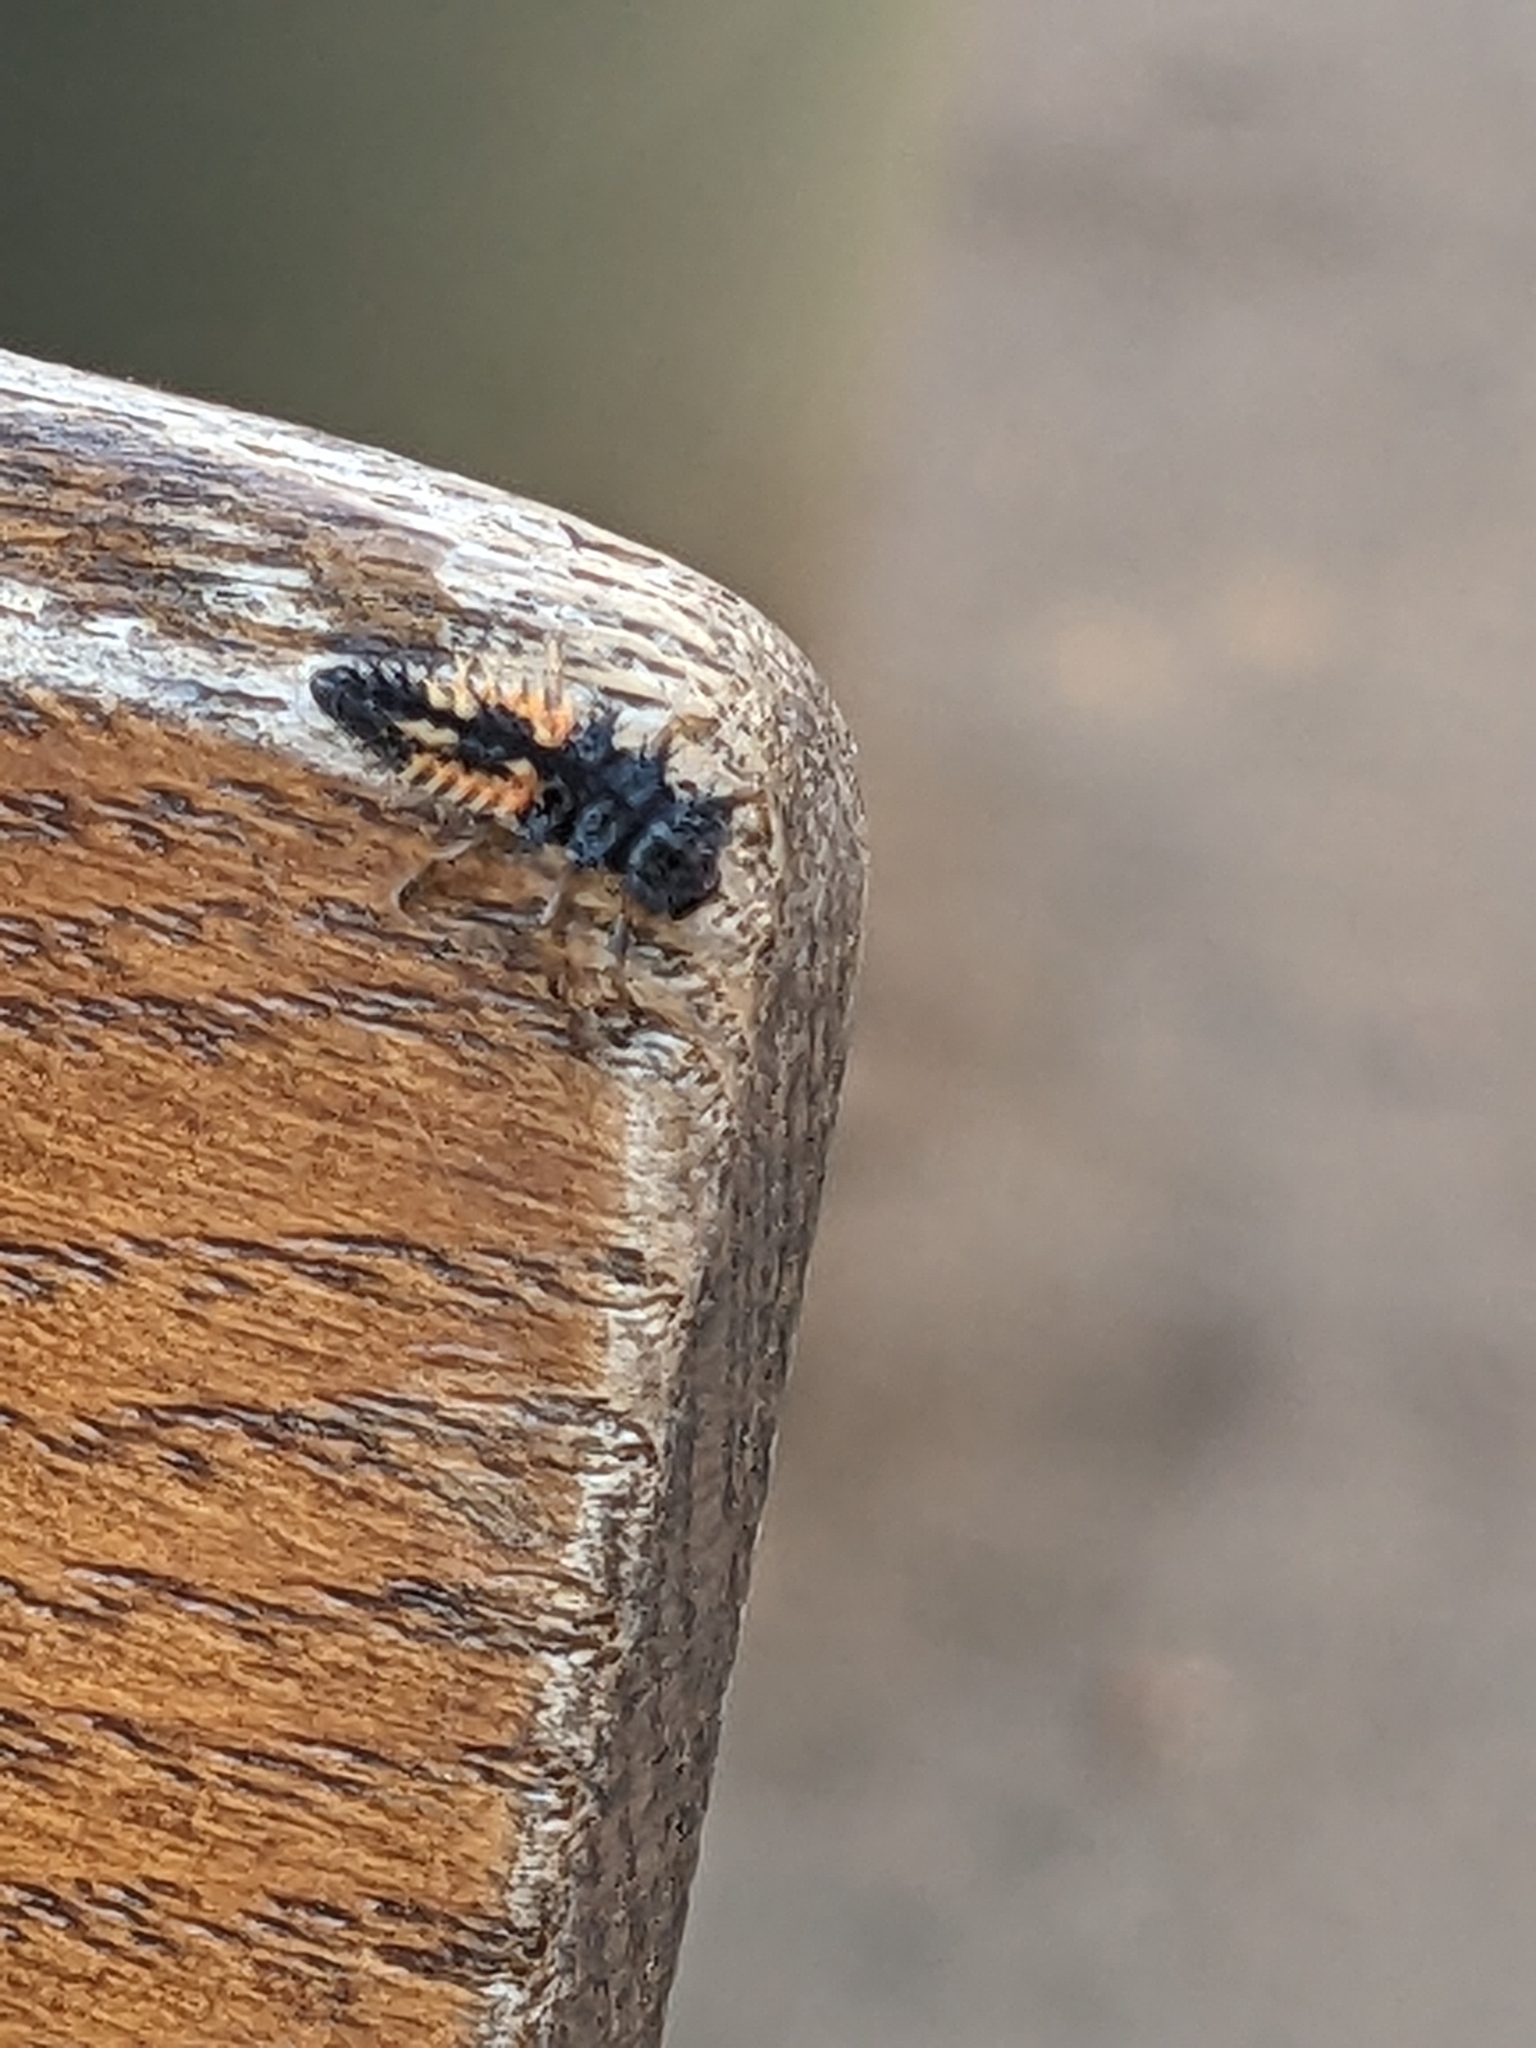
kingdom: Animalia
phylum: Arthropoda
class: Insecta
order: Coleoptera
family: Coccinellidae
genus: Harmonia
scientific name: Harmonia axyridis
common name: Harlequin ladybird
